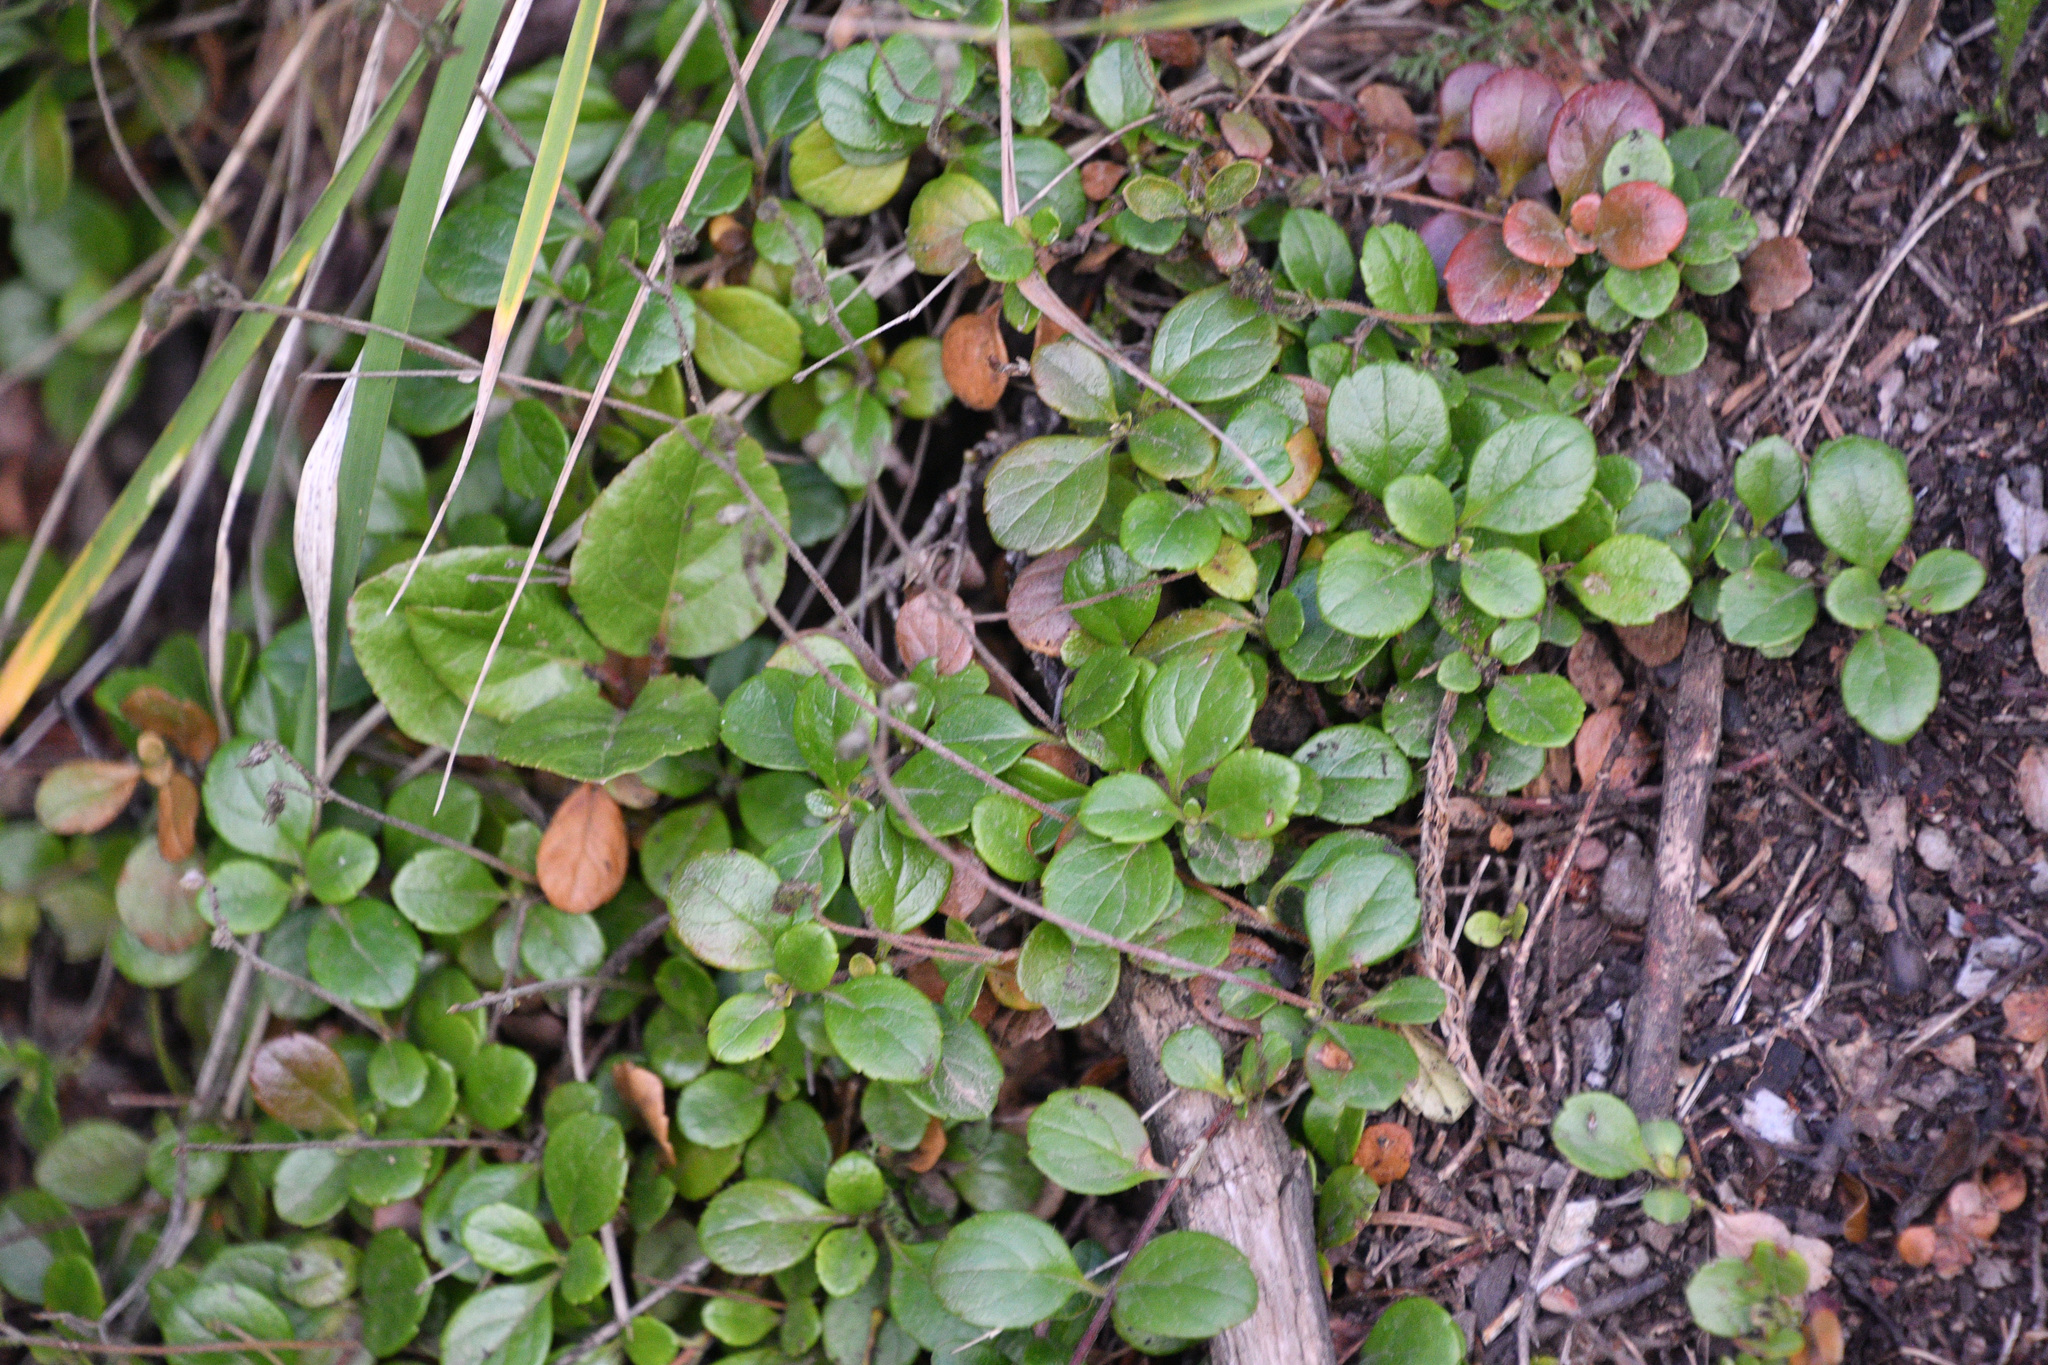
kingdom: Plantae
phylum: Tracheophyta
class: Magnoliopsida
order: Dipsacales
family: Caprifoliaceae
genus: Linnaea
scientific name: Linnaea borealis
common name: Twinflower
